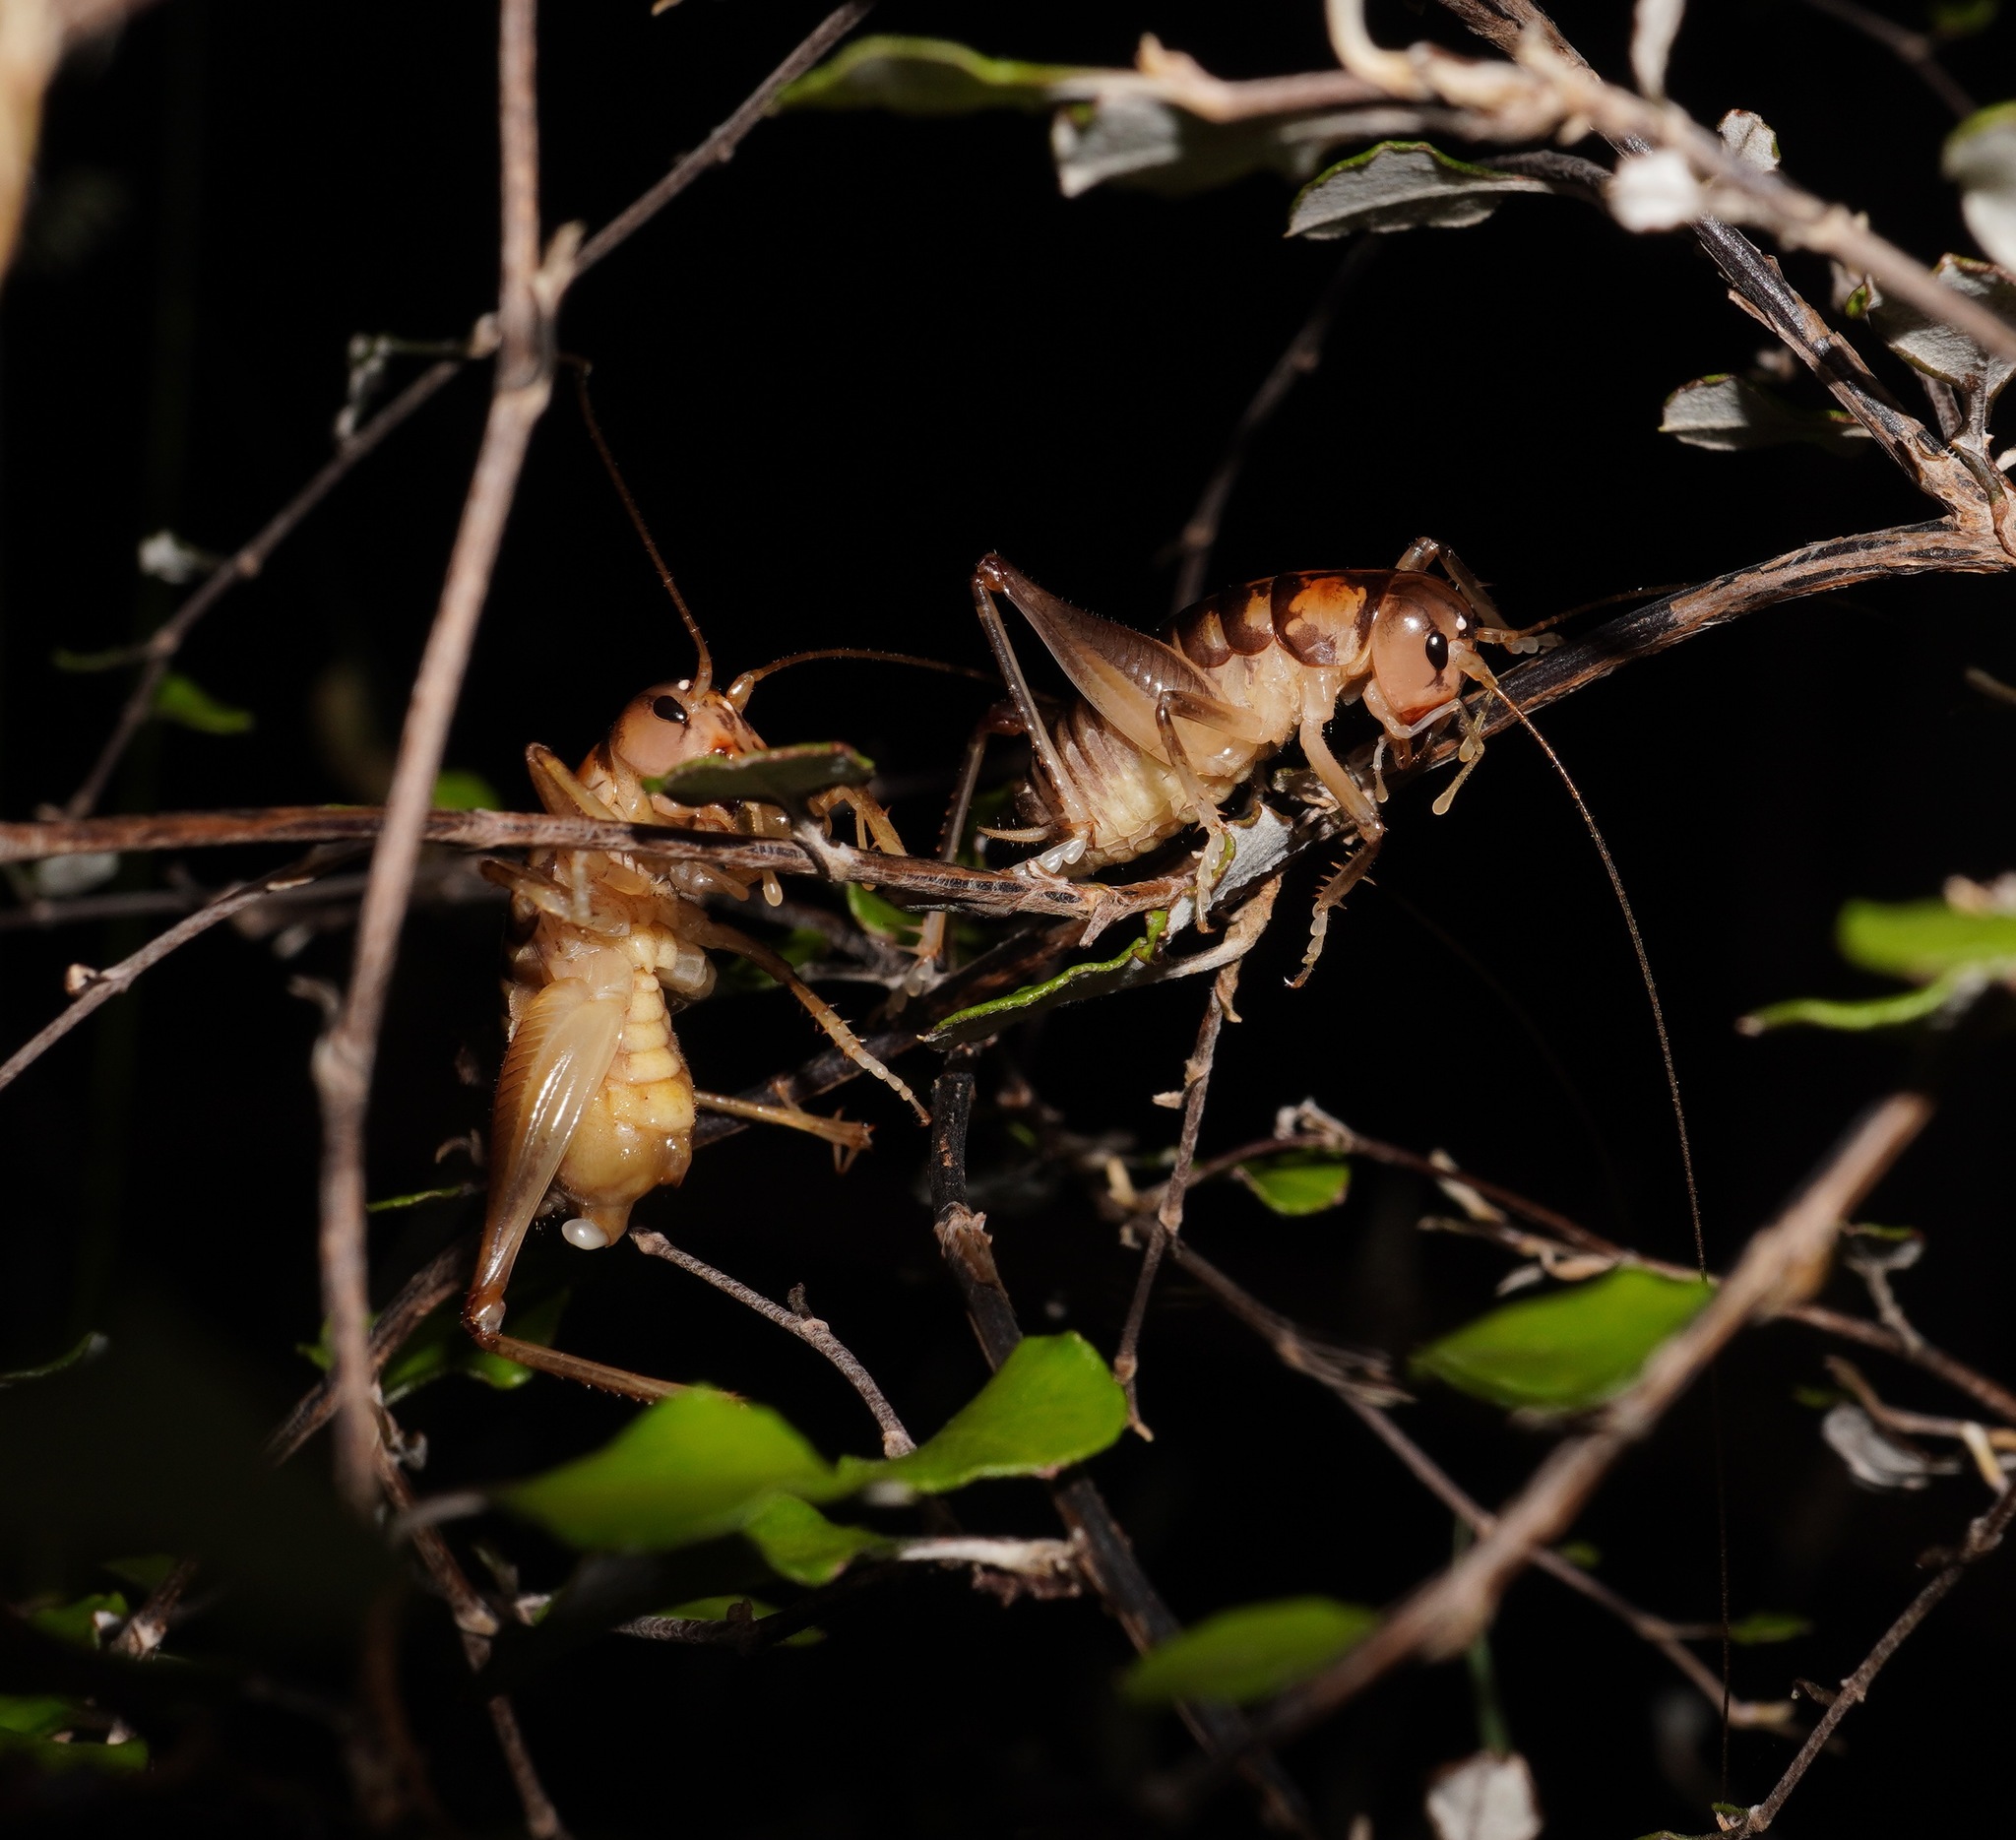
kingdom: Animalia
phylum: Arthropoda
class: Insecta
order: Orthoptera
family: Anostostomatidae
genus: Hemiandrus
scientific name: Hemiandrus pallitarsis
